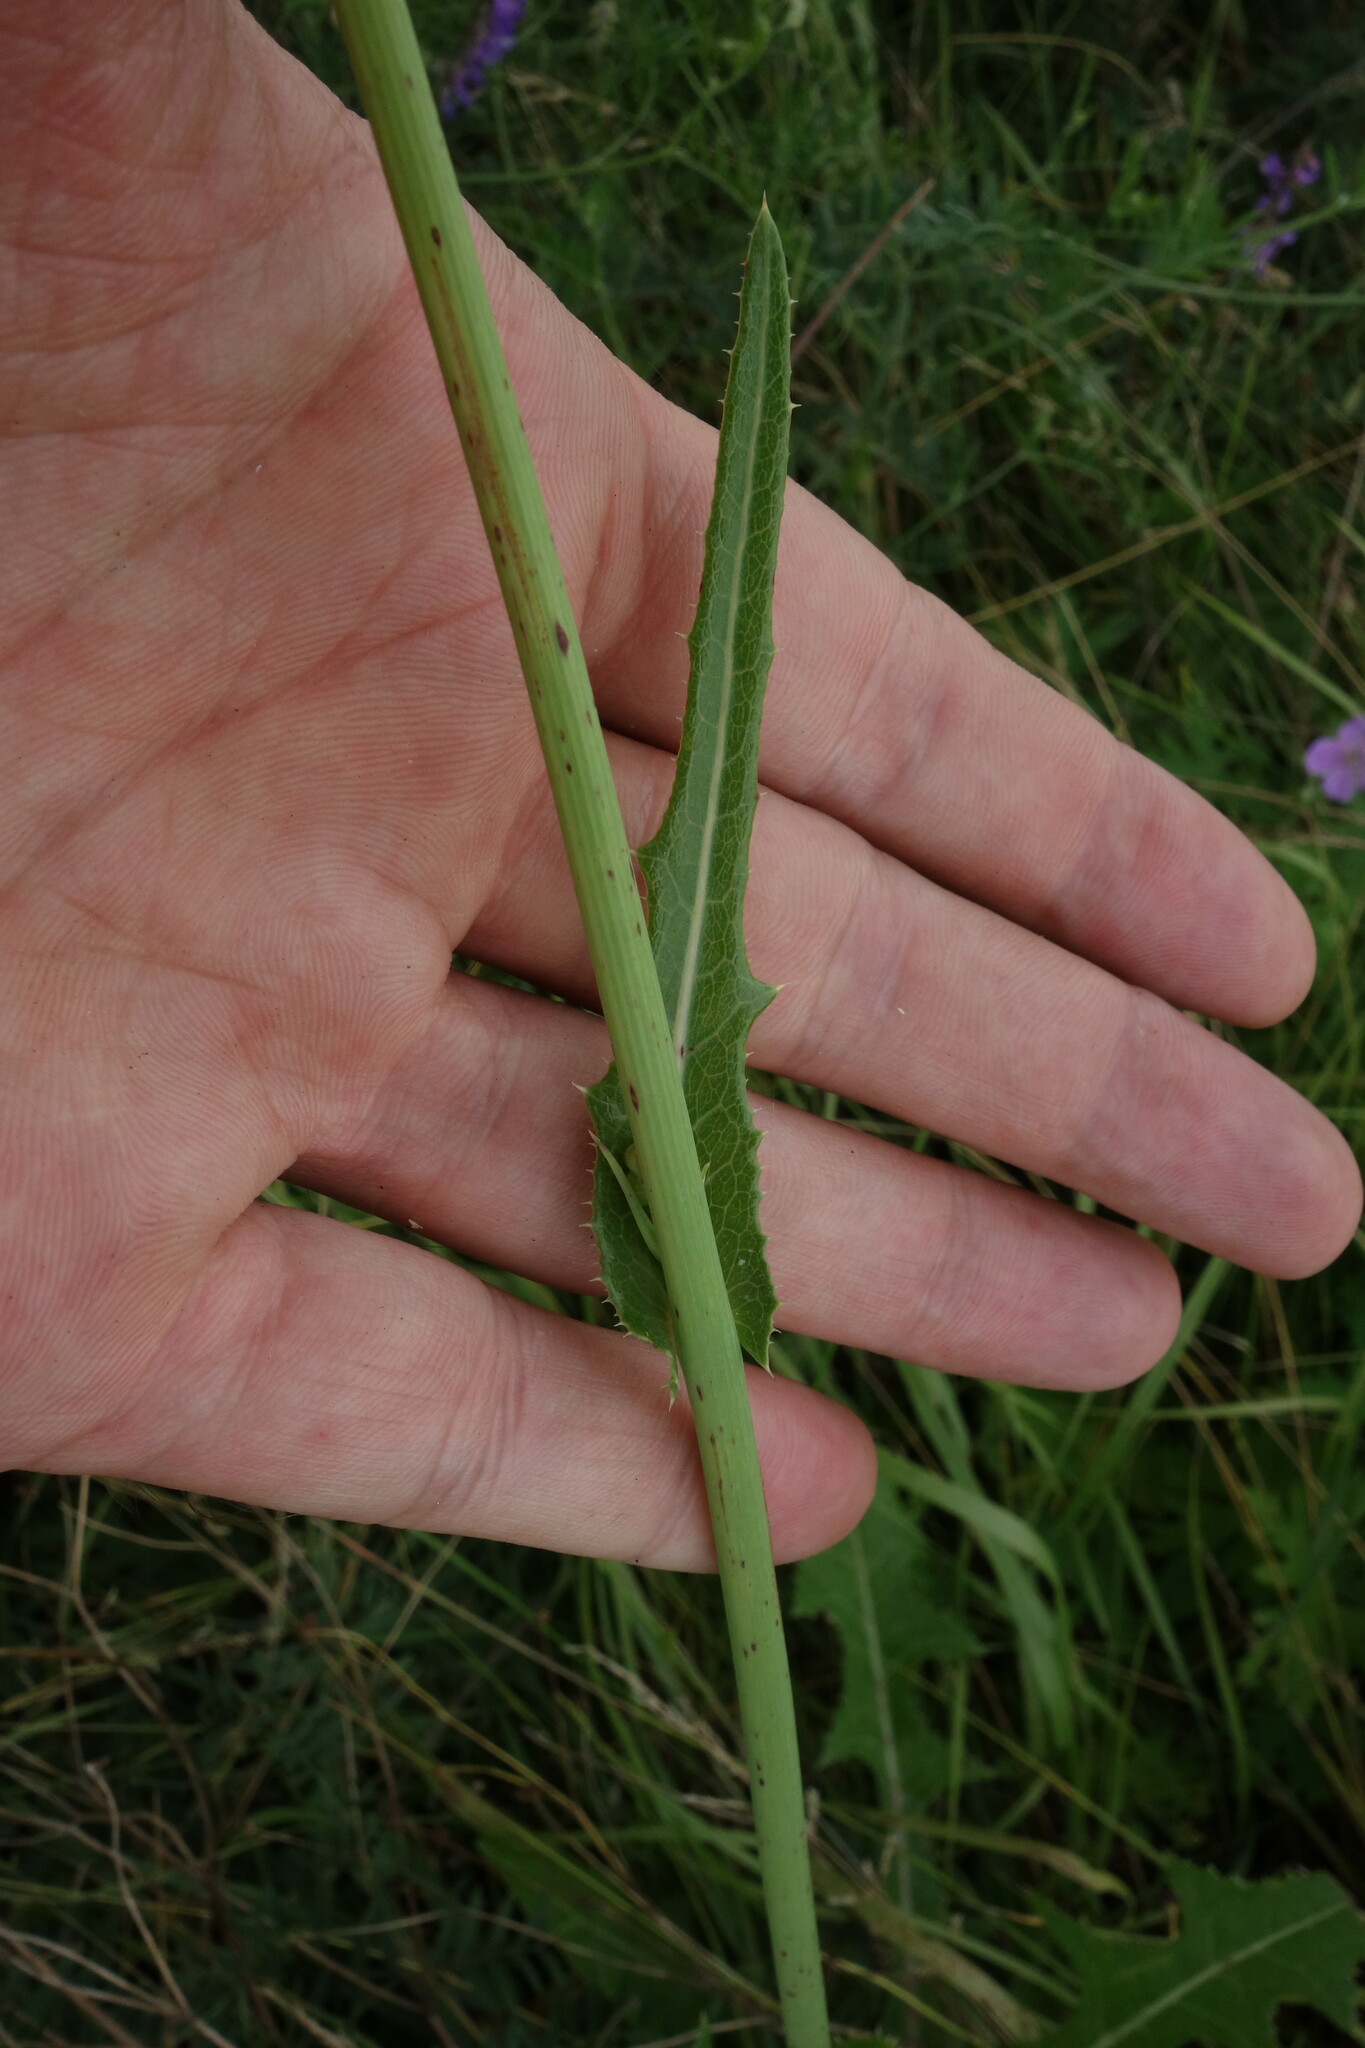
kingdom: Plantae
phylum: Tracheophyta
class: Magnoliopsida
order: Asterales
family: Asteraceae
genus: Sonchus
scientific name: Sonchus arvensis
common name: Perennial sow-thistle
